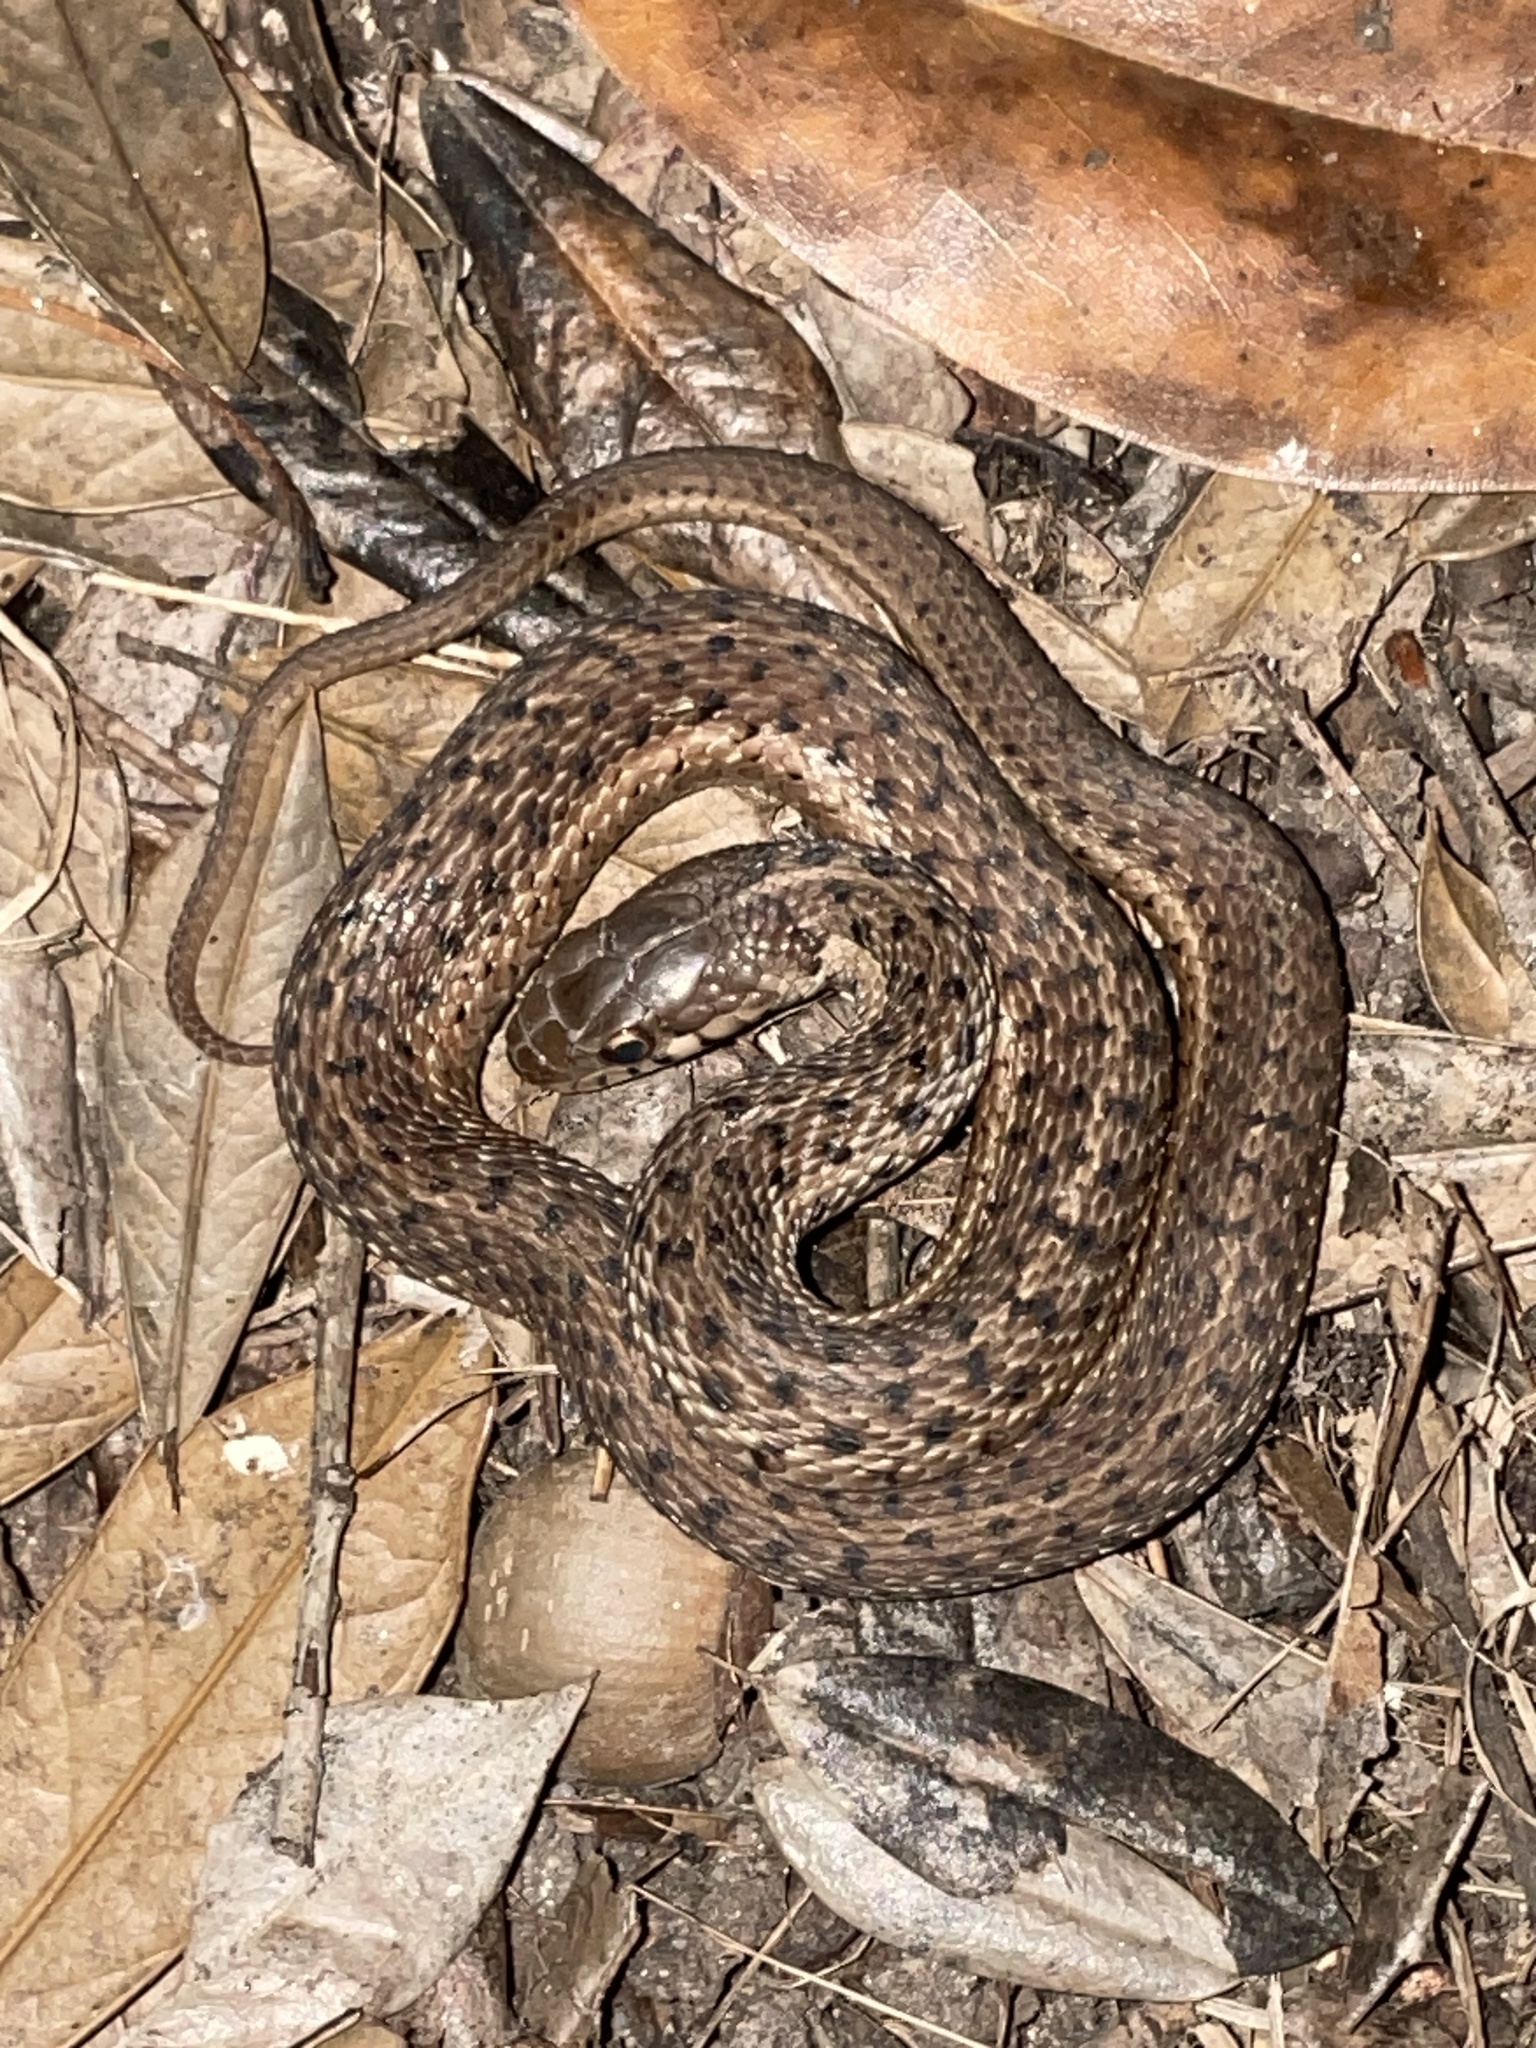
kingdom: Animalia
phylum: Chordata
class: Squamata
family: Colubridae
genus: Thamnophis
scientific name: Thamnophis sirtalis
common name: Common garter snake
